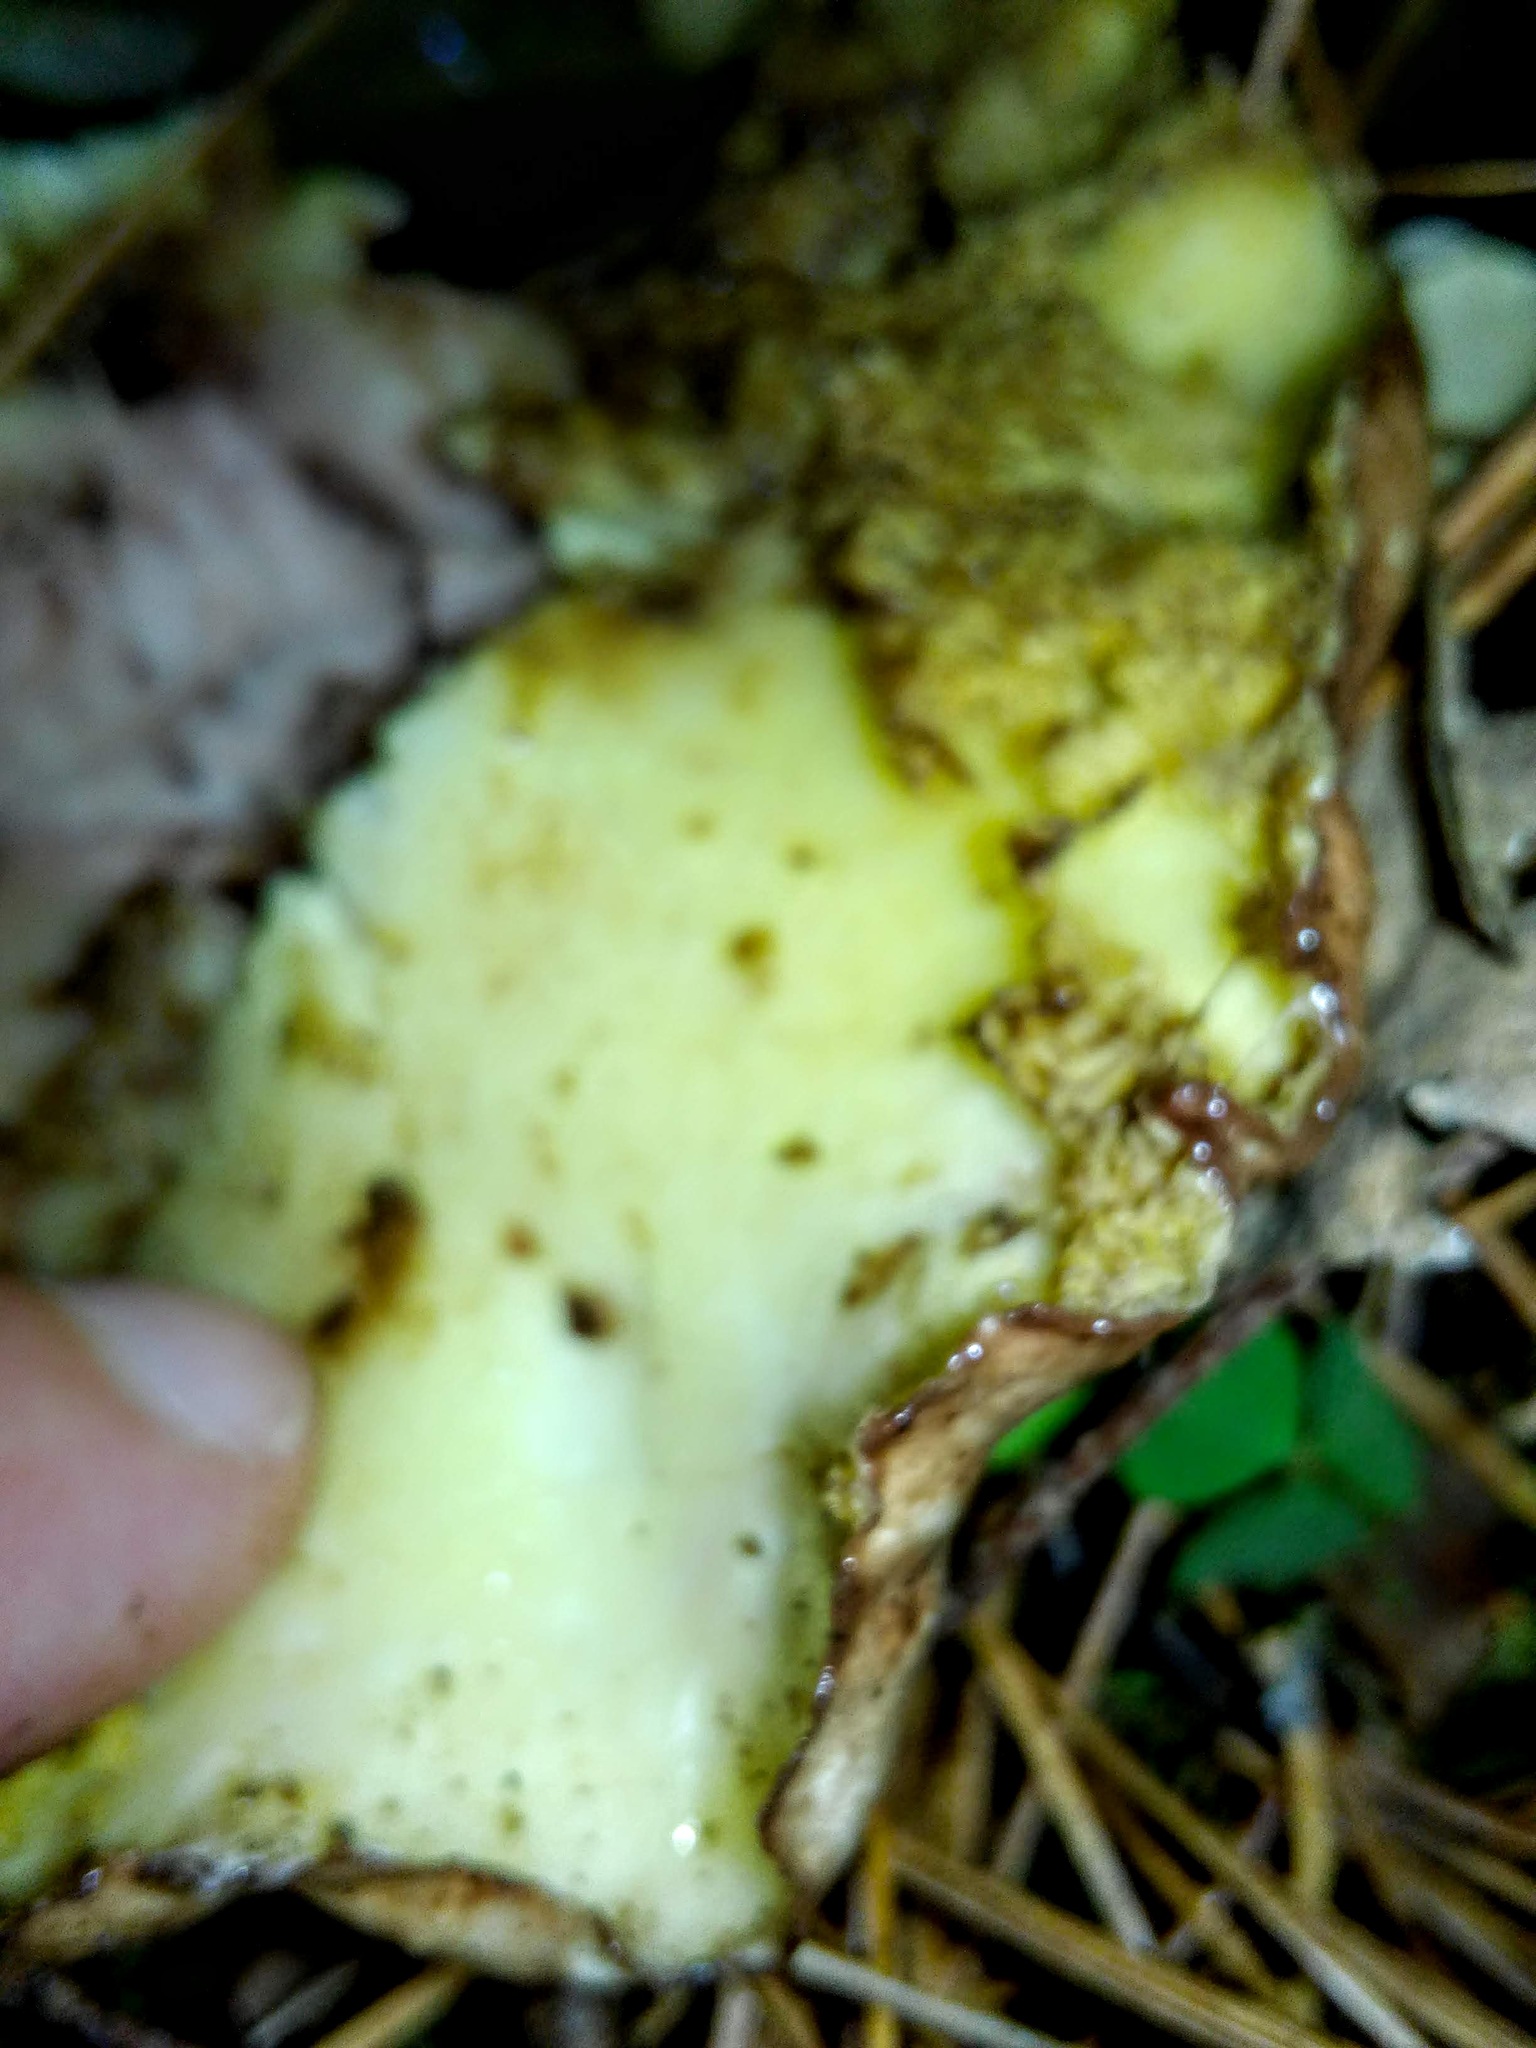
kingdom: Fungi
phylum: Basidiomycota
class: Agaricomycetes
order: Boletales
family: Suillaceae
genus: Suillus
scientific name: Suillus placidus
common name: Slippery white bolete
